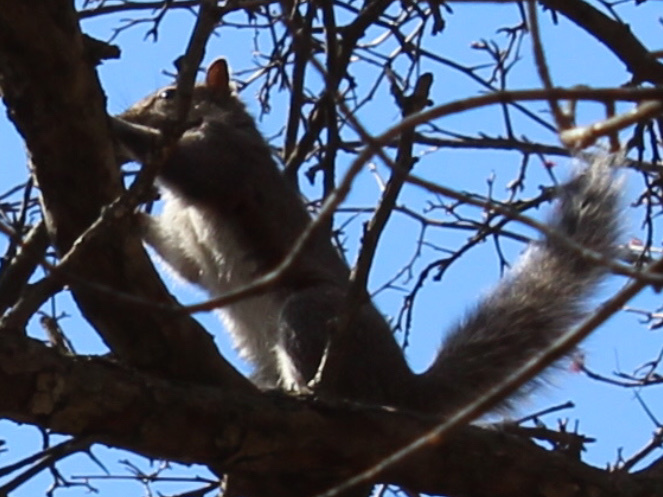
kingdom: Animalia
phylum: Chordata
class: Mammalia
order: Rodentia
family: Sciuridae
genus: Sciurus
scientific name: Sciurus carolinensis
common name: Eastern gray squirrel
